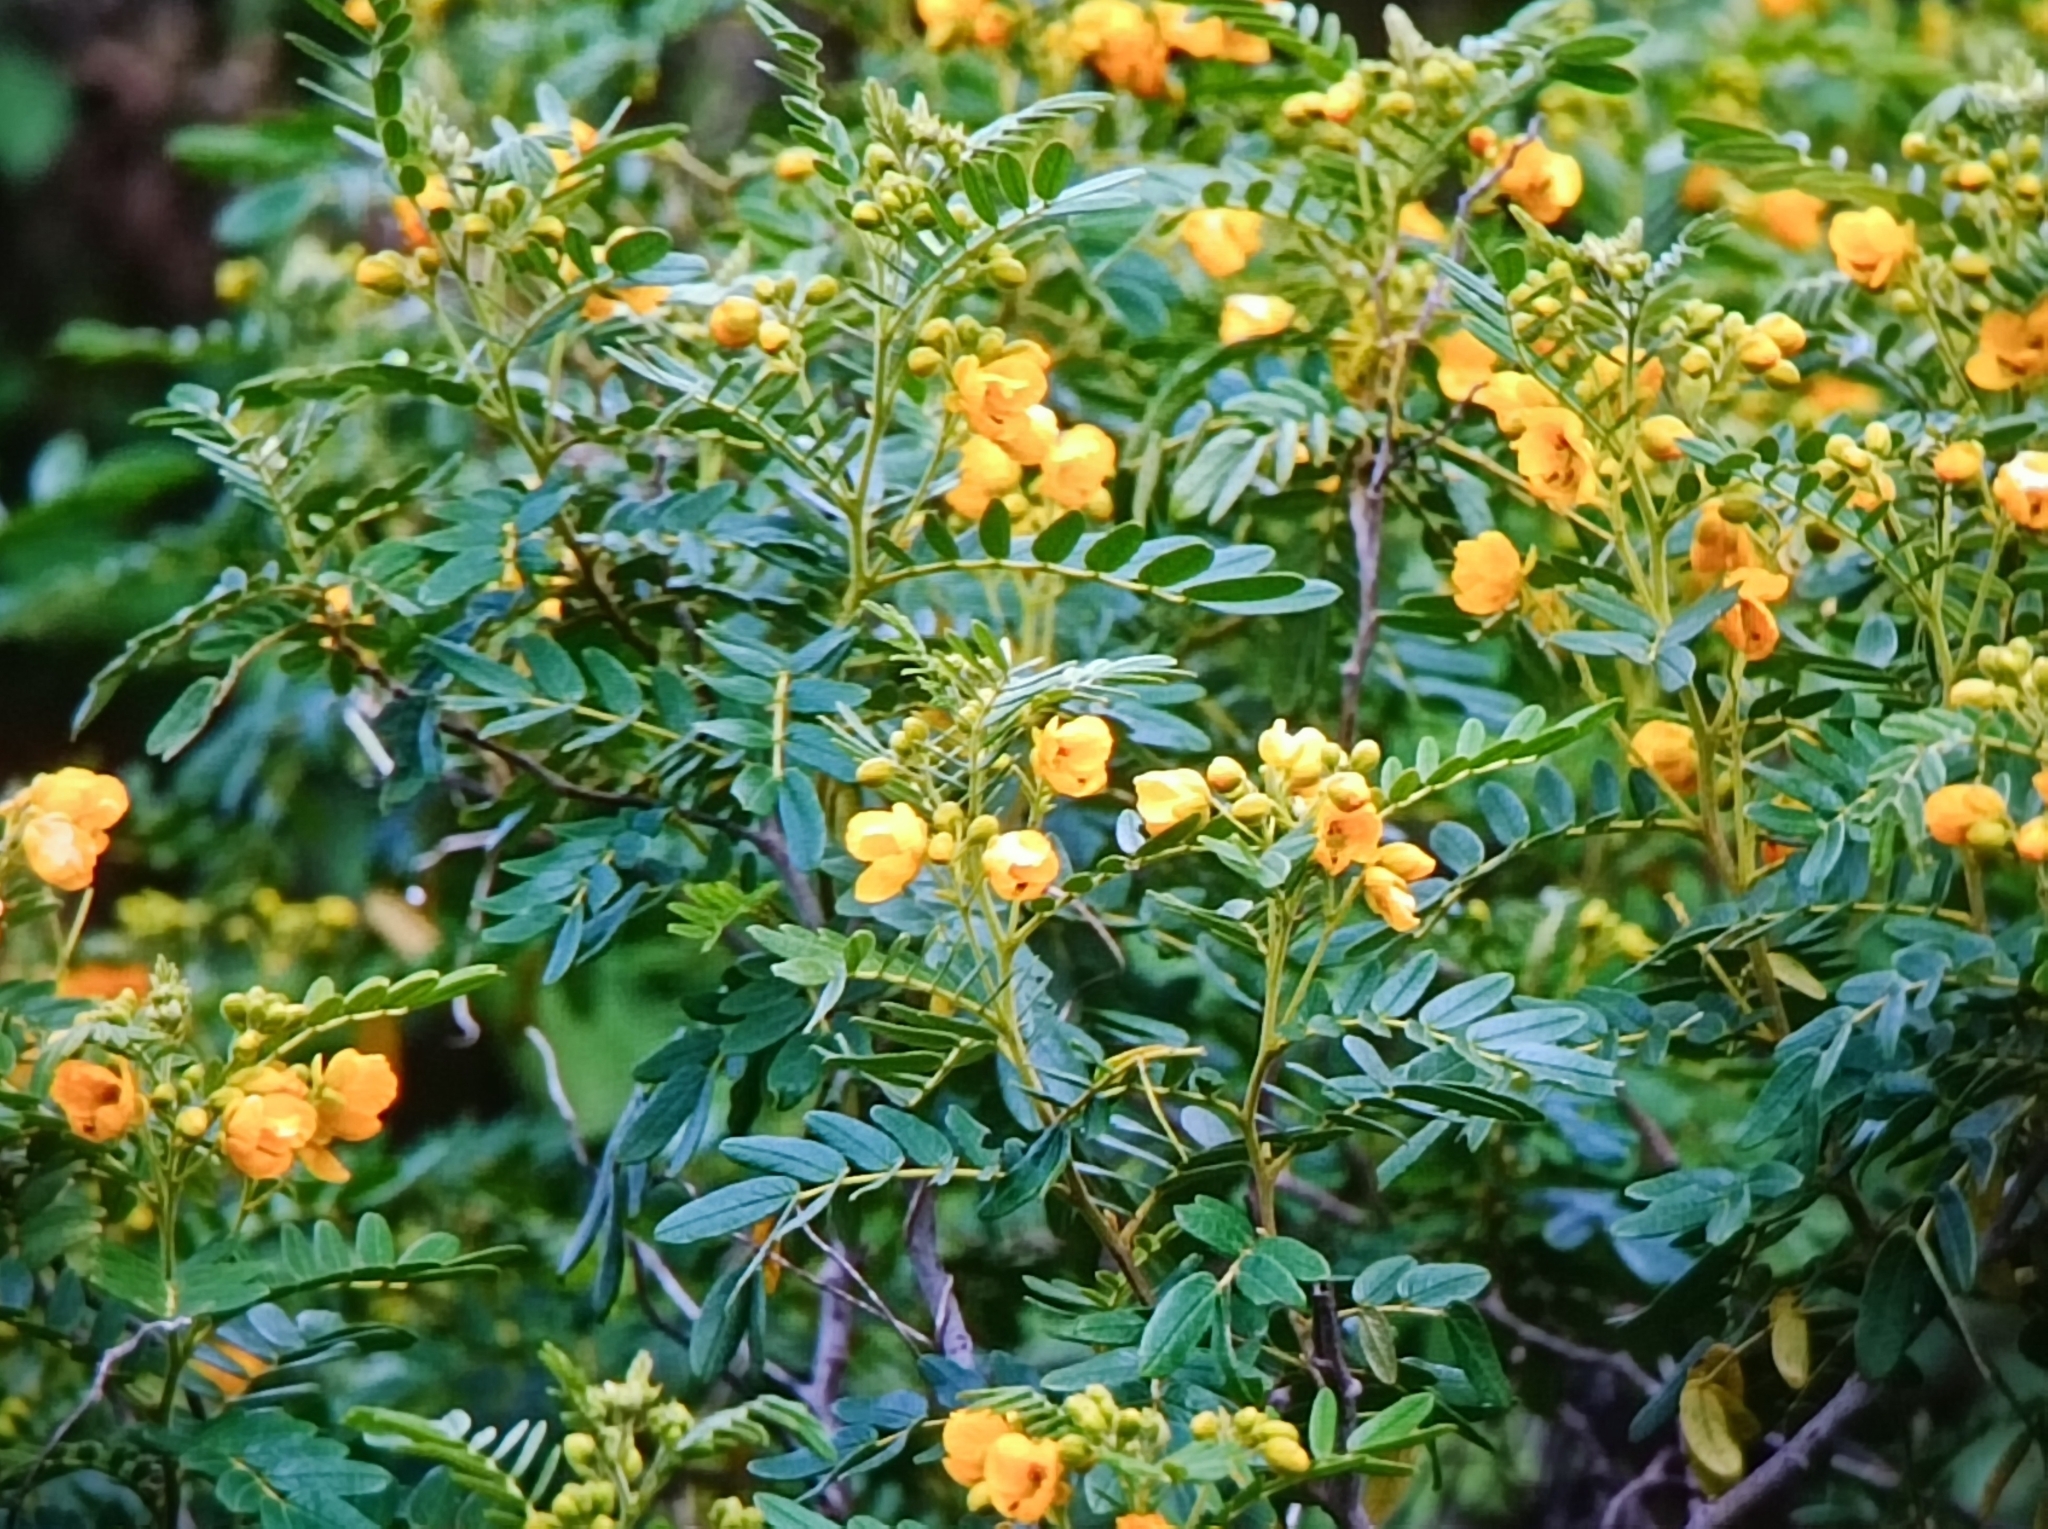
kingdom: Plantae
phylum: Tracheophyta
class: Magnoliopsida
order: Fabales
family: Fabaceae
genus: Senna
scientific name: Senna multiglandulosa
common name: Glandular senna
